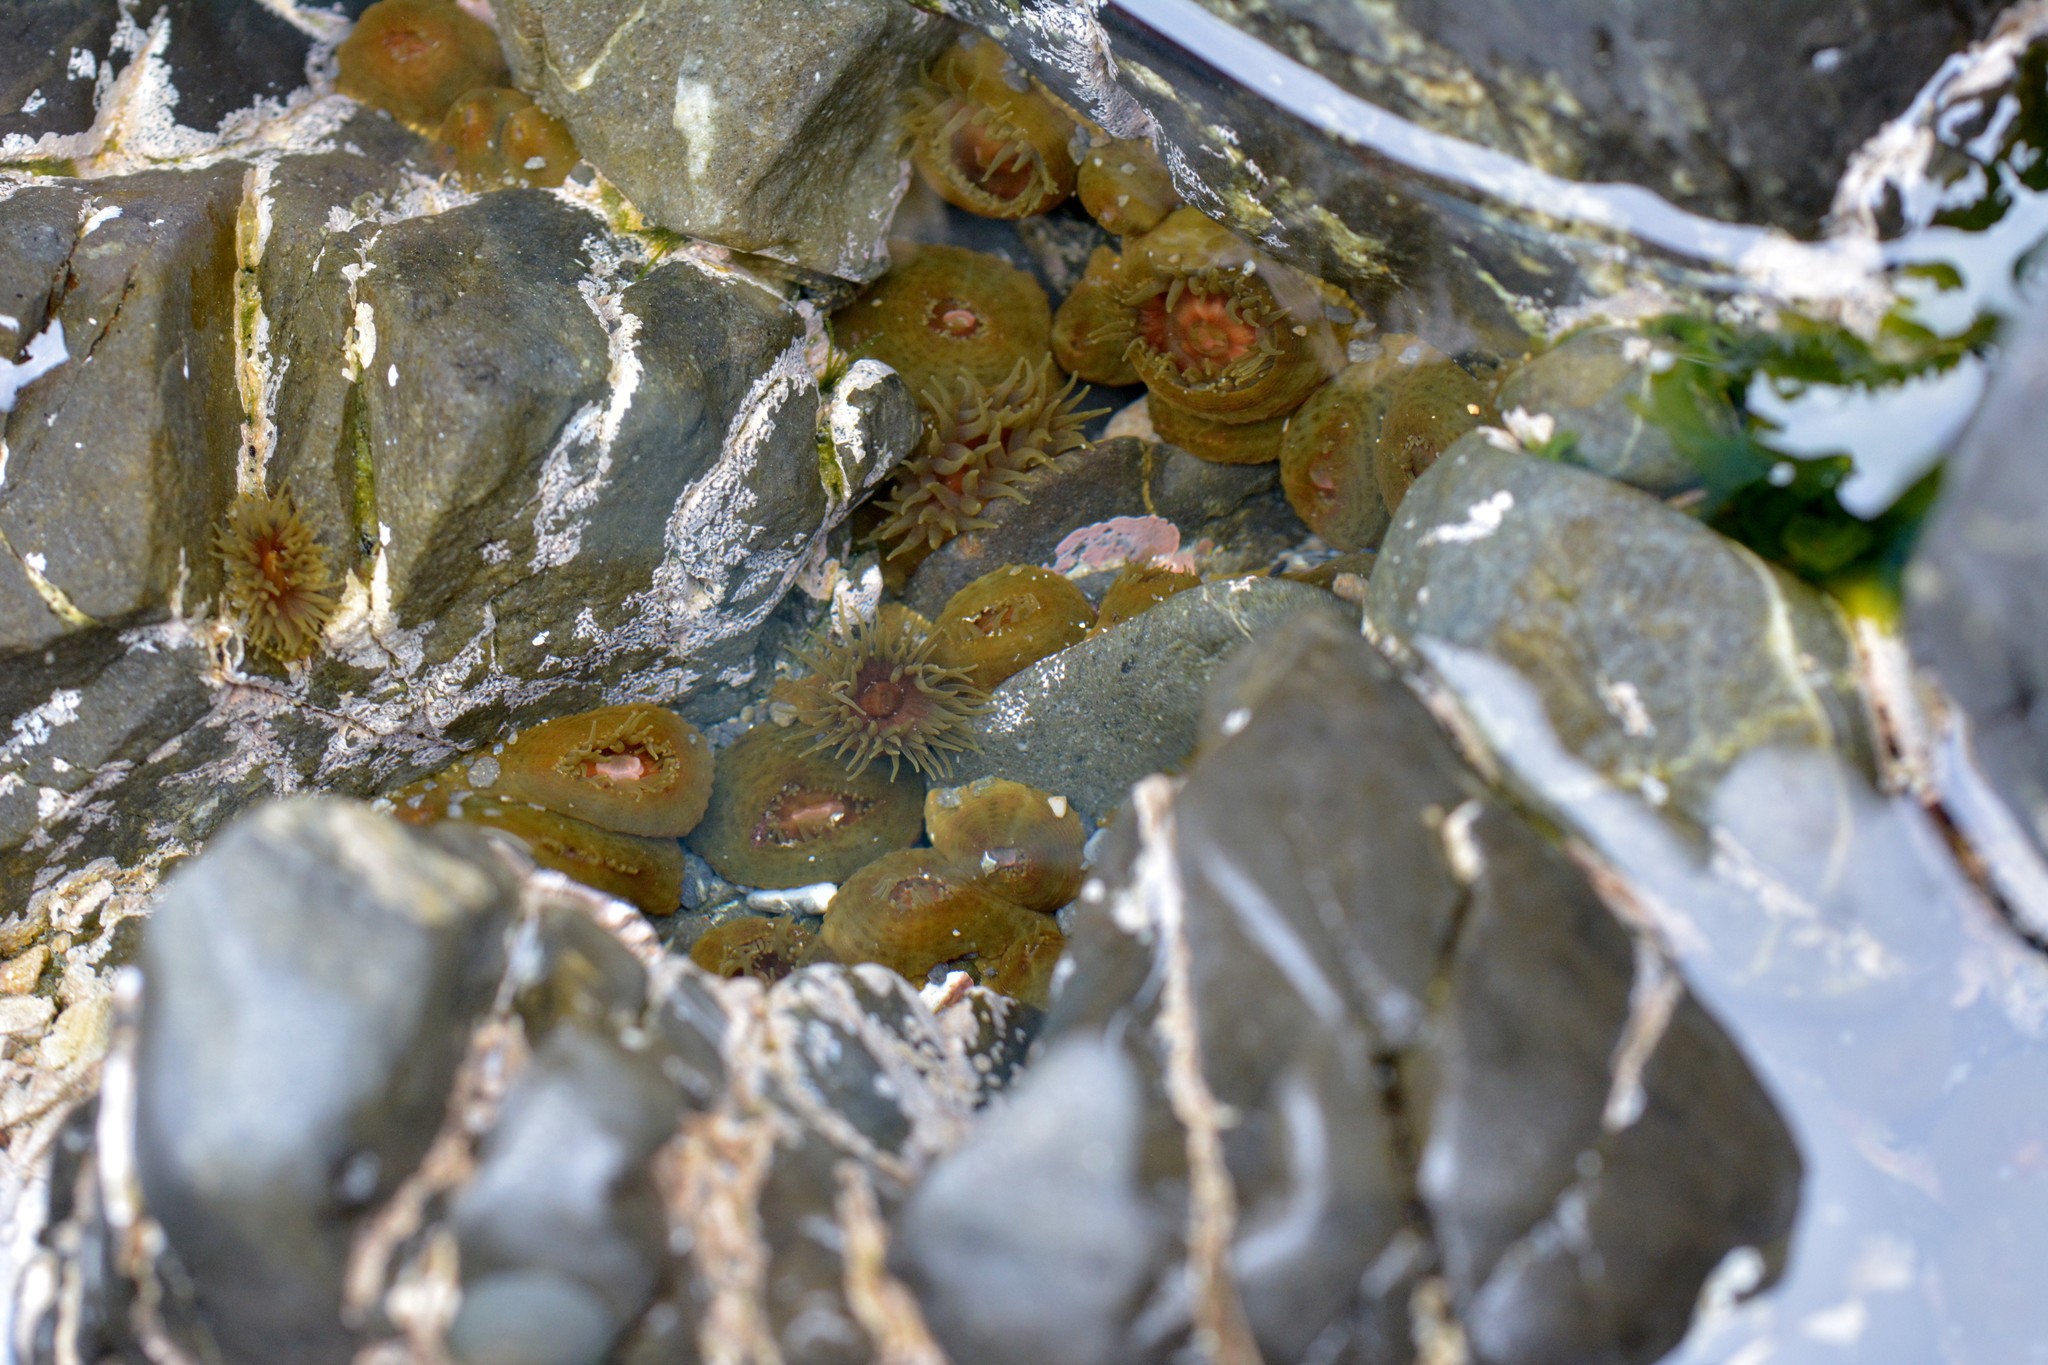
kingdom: Animalia
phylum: Cnidaria
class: Anthozoa
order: Actiniaria
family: Actiniidae
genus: Isactinia
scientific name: Isactinia olivacea
